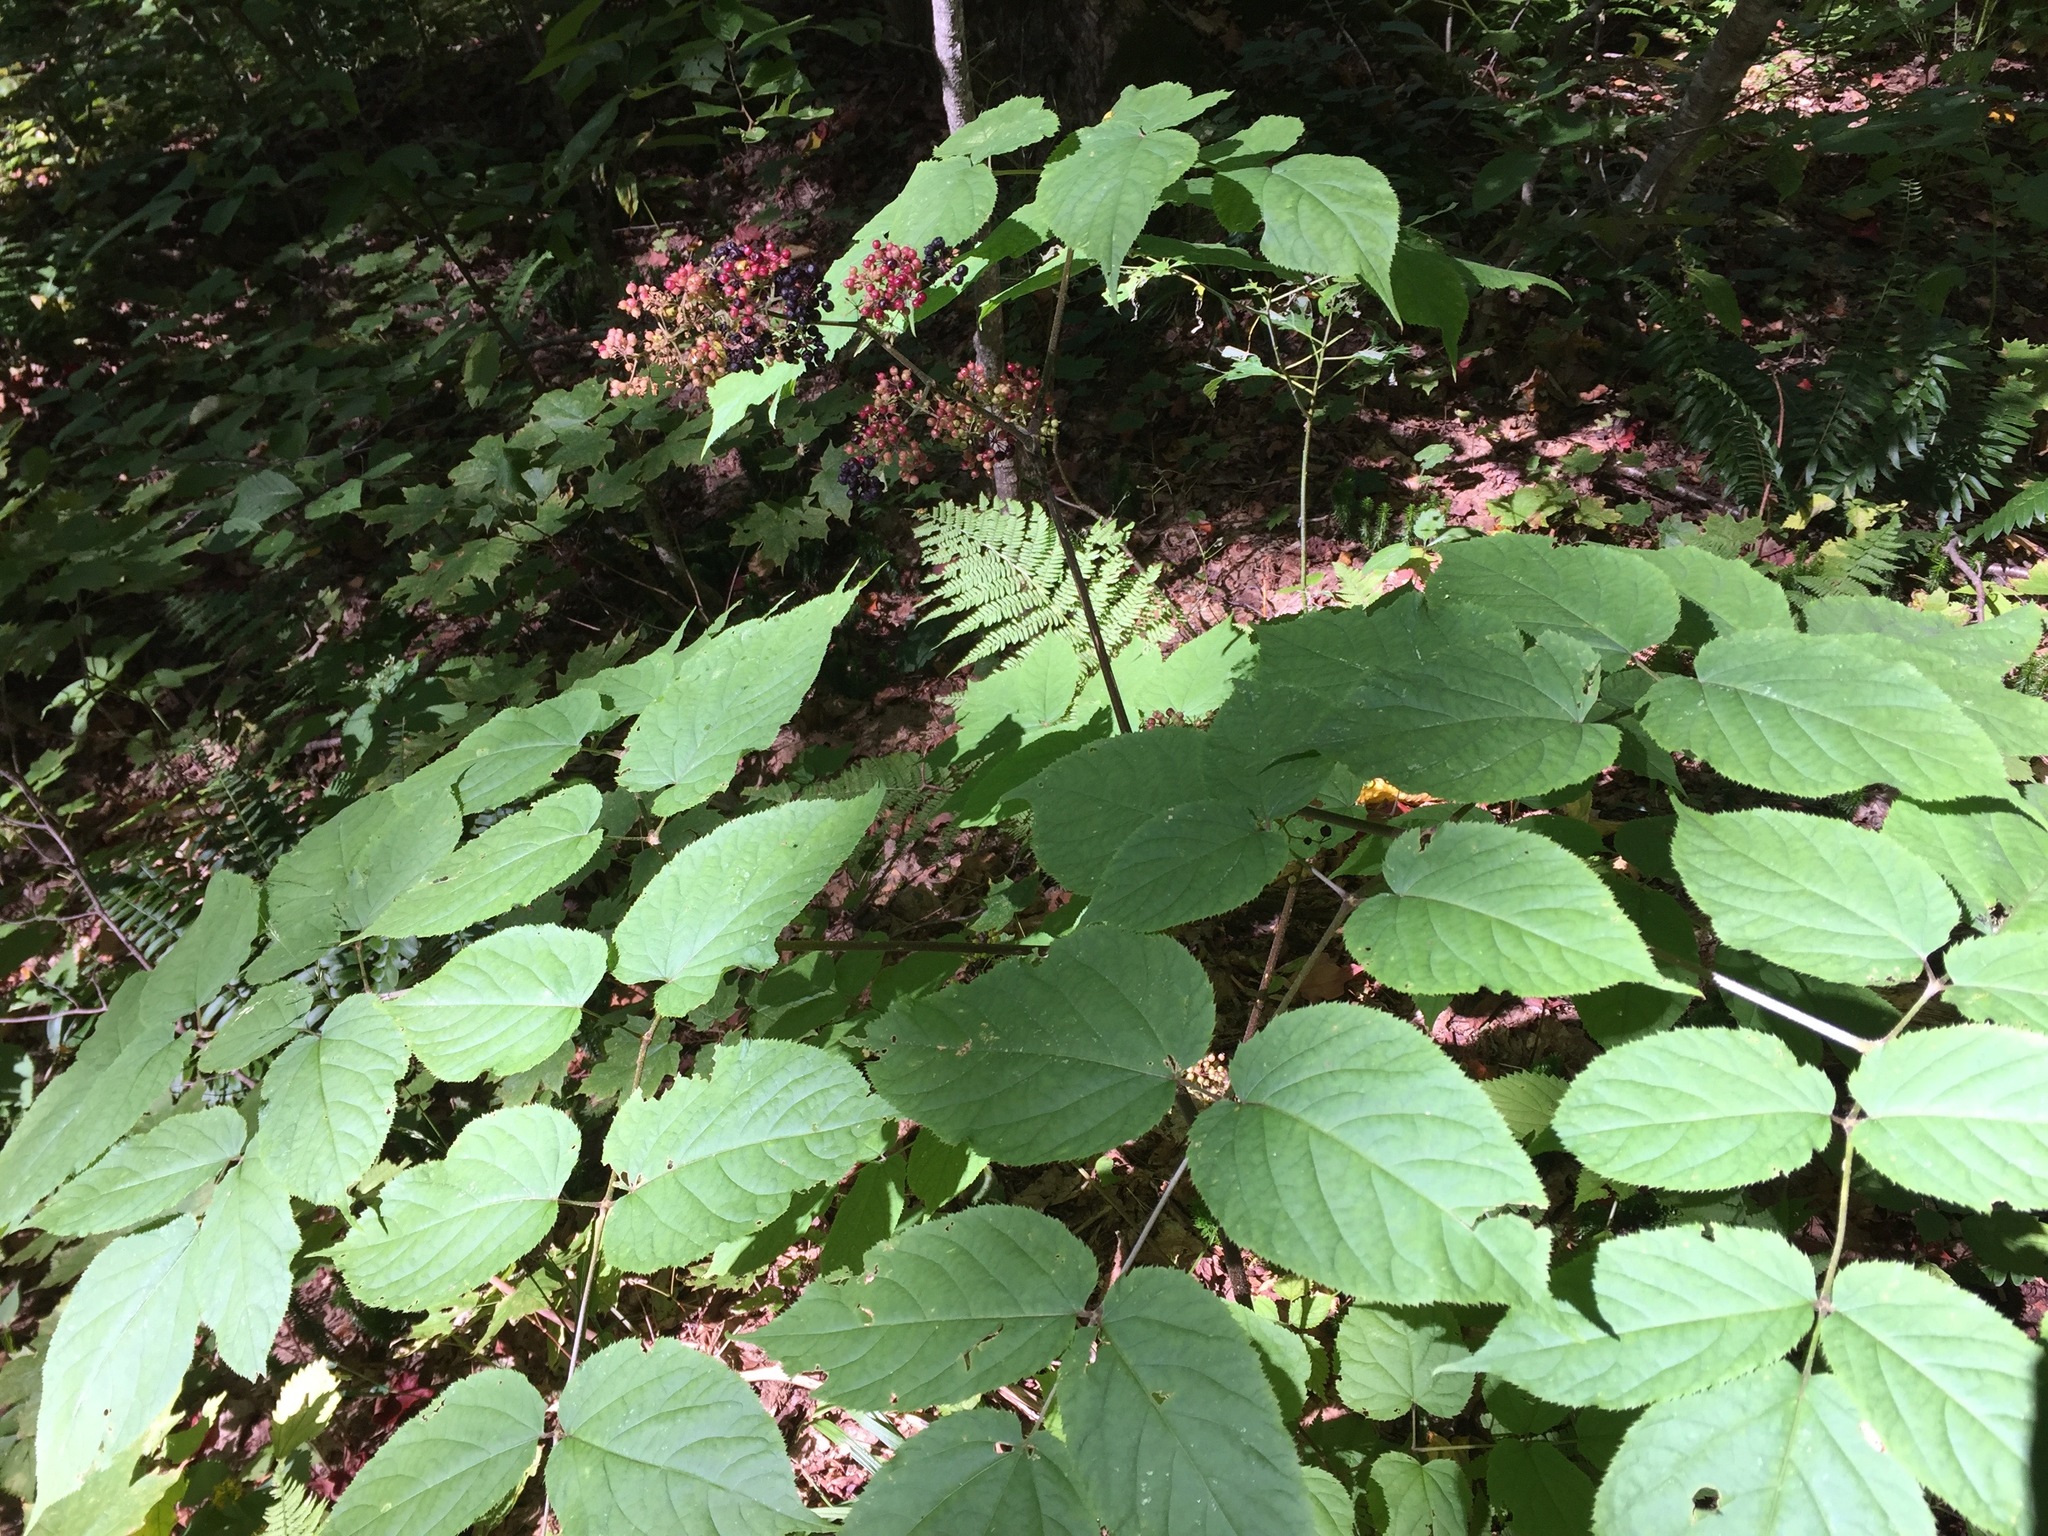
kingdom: Plantae
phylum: Tracheophyta
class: Magnoliopsida
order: Apiales
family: Araliaceae
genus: Aralia
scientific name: Aralia racemosa
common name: American-spikenard
